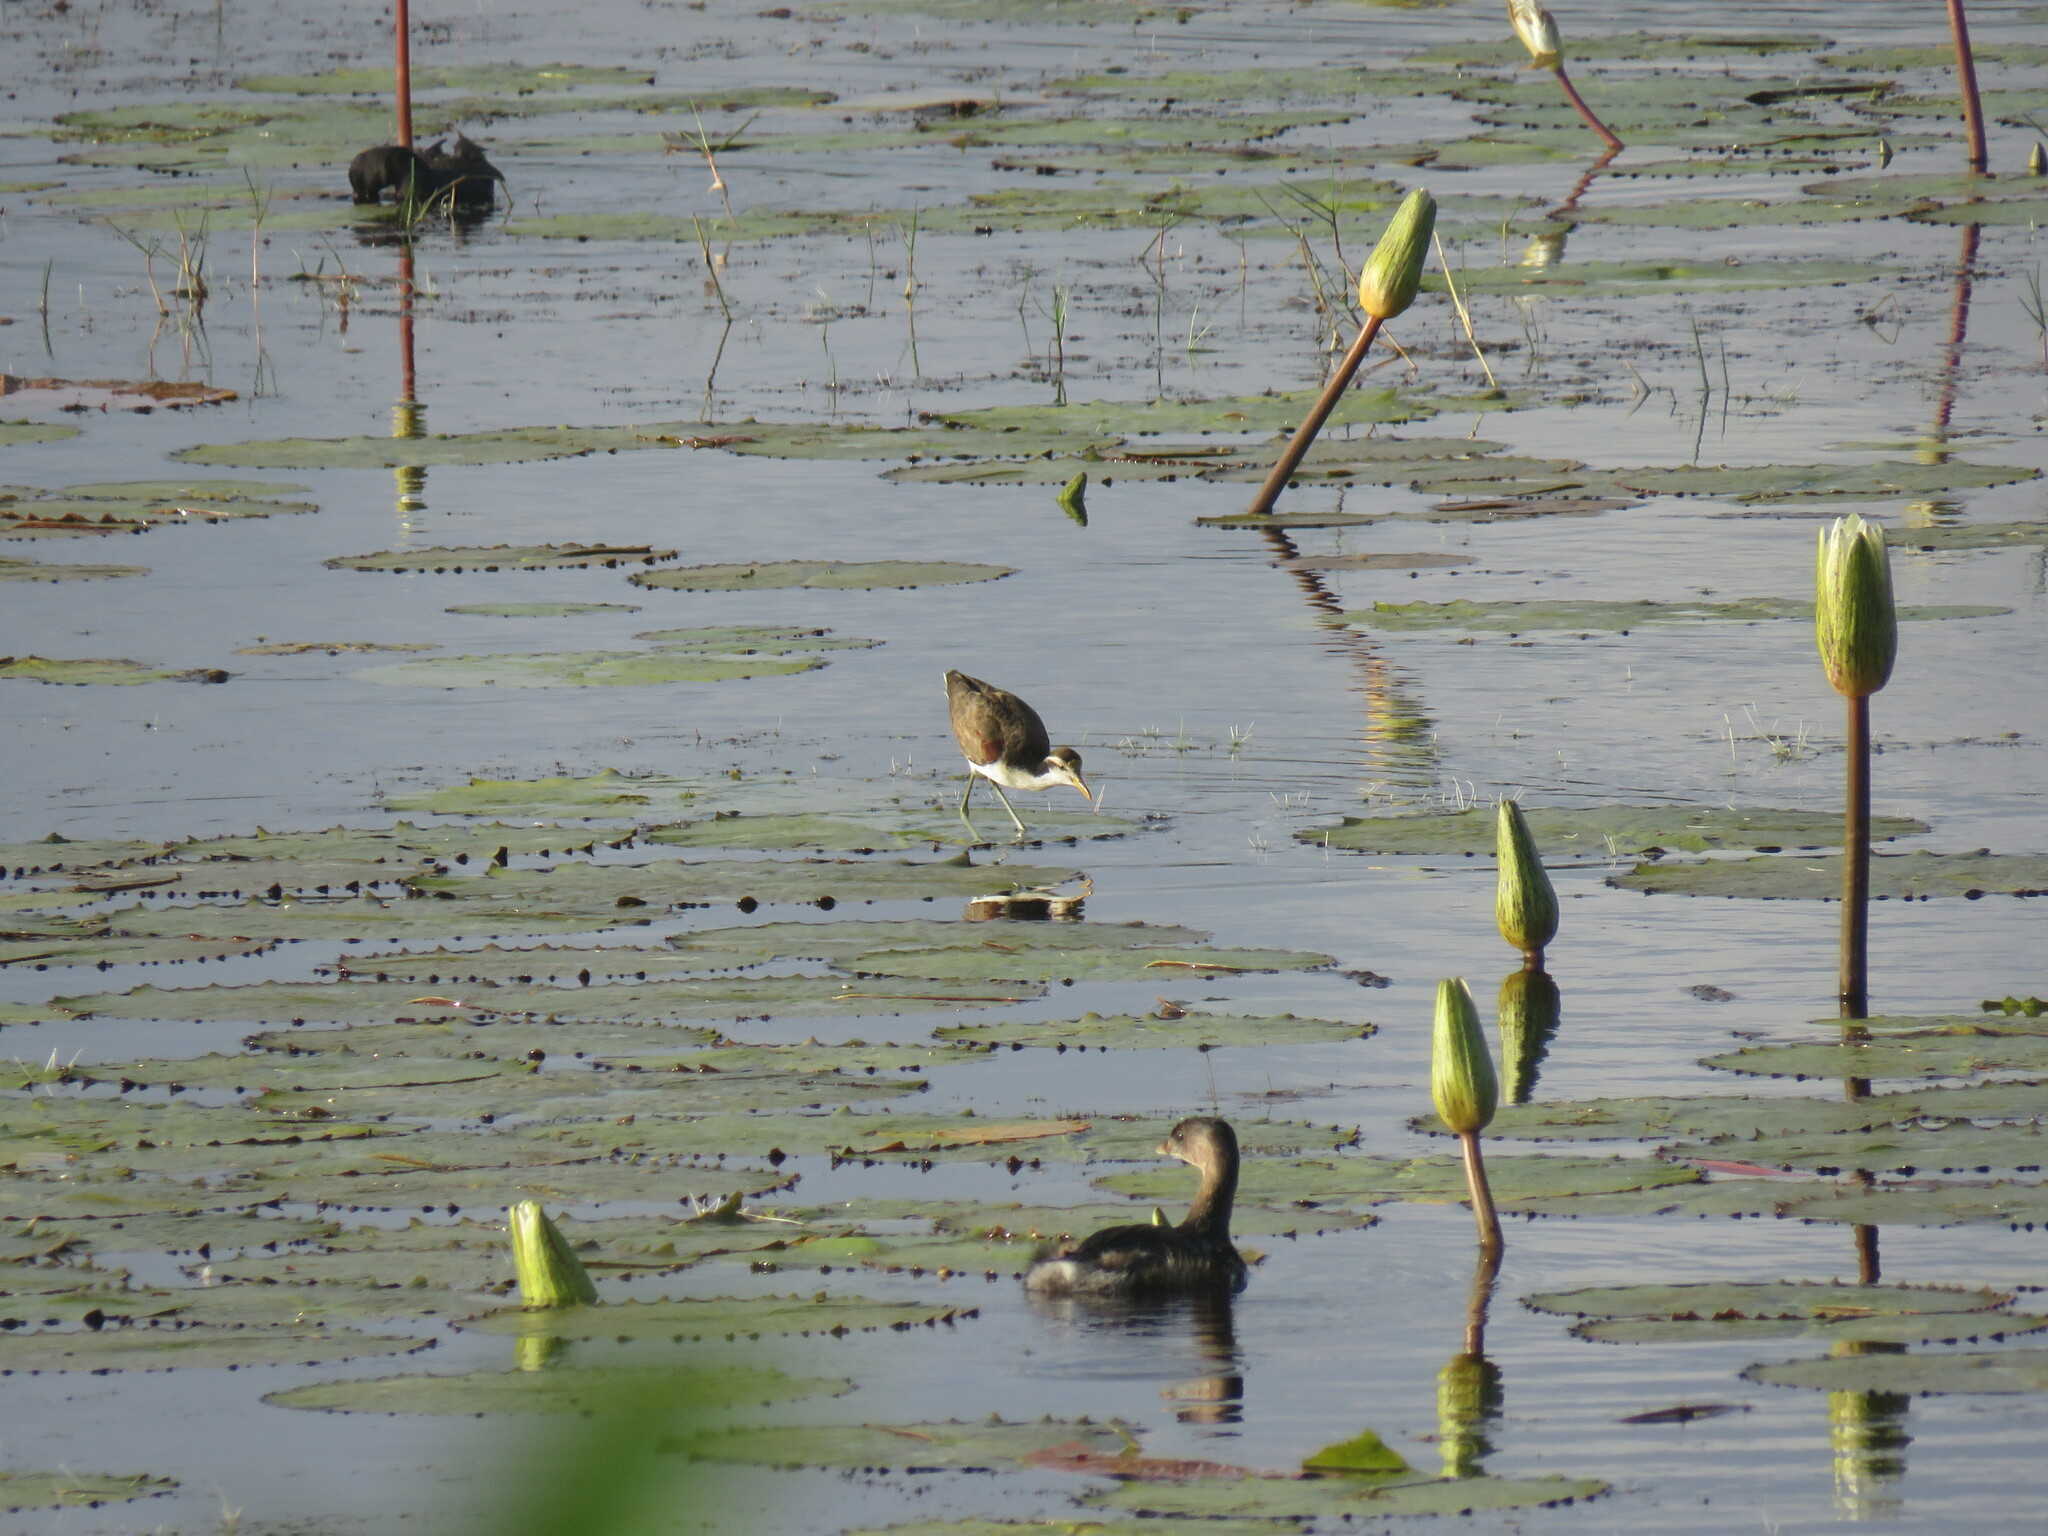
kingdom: Animalia
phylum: Chordata
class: Aves
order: Charadriiformes
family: Jacanidae
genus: Jacana
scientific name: Jacana spinosa
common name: Northern jacana
